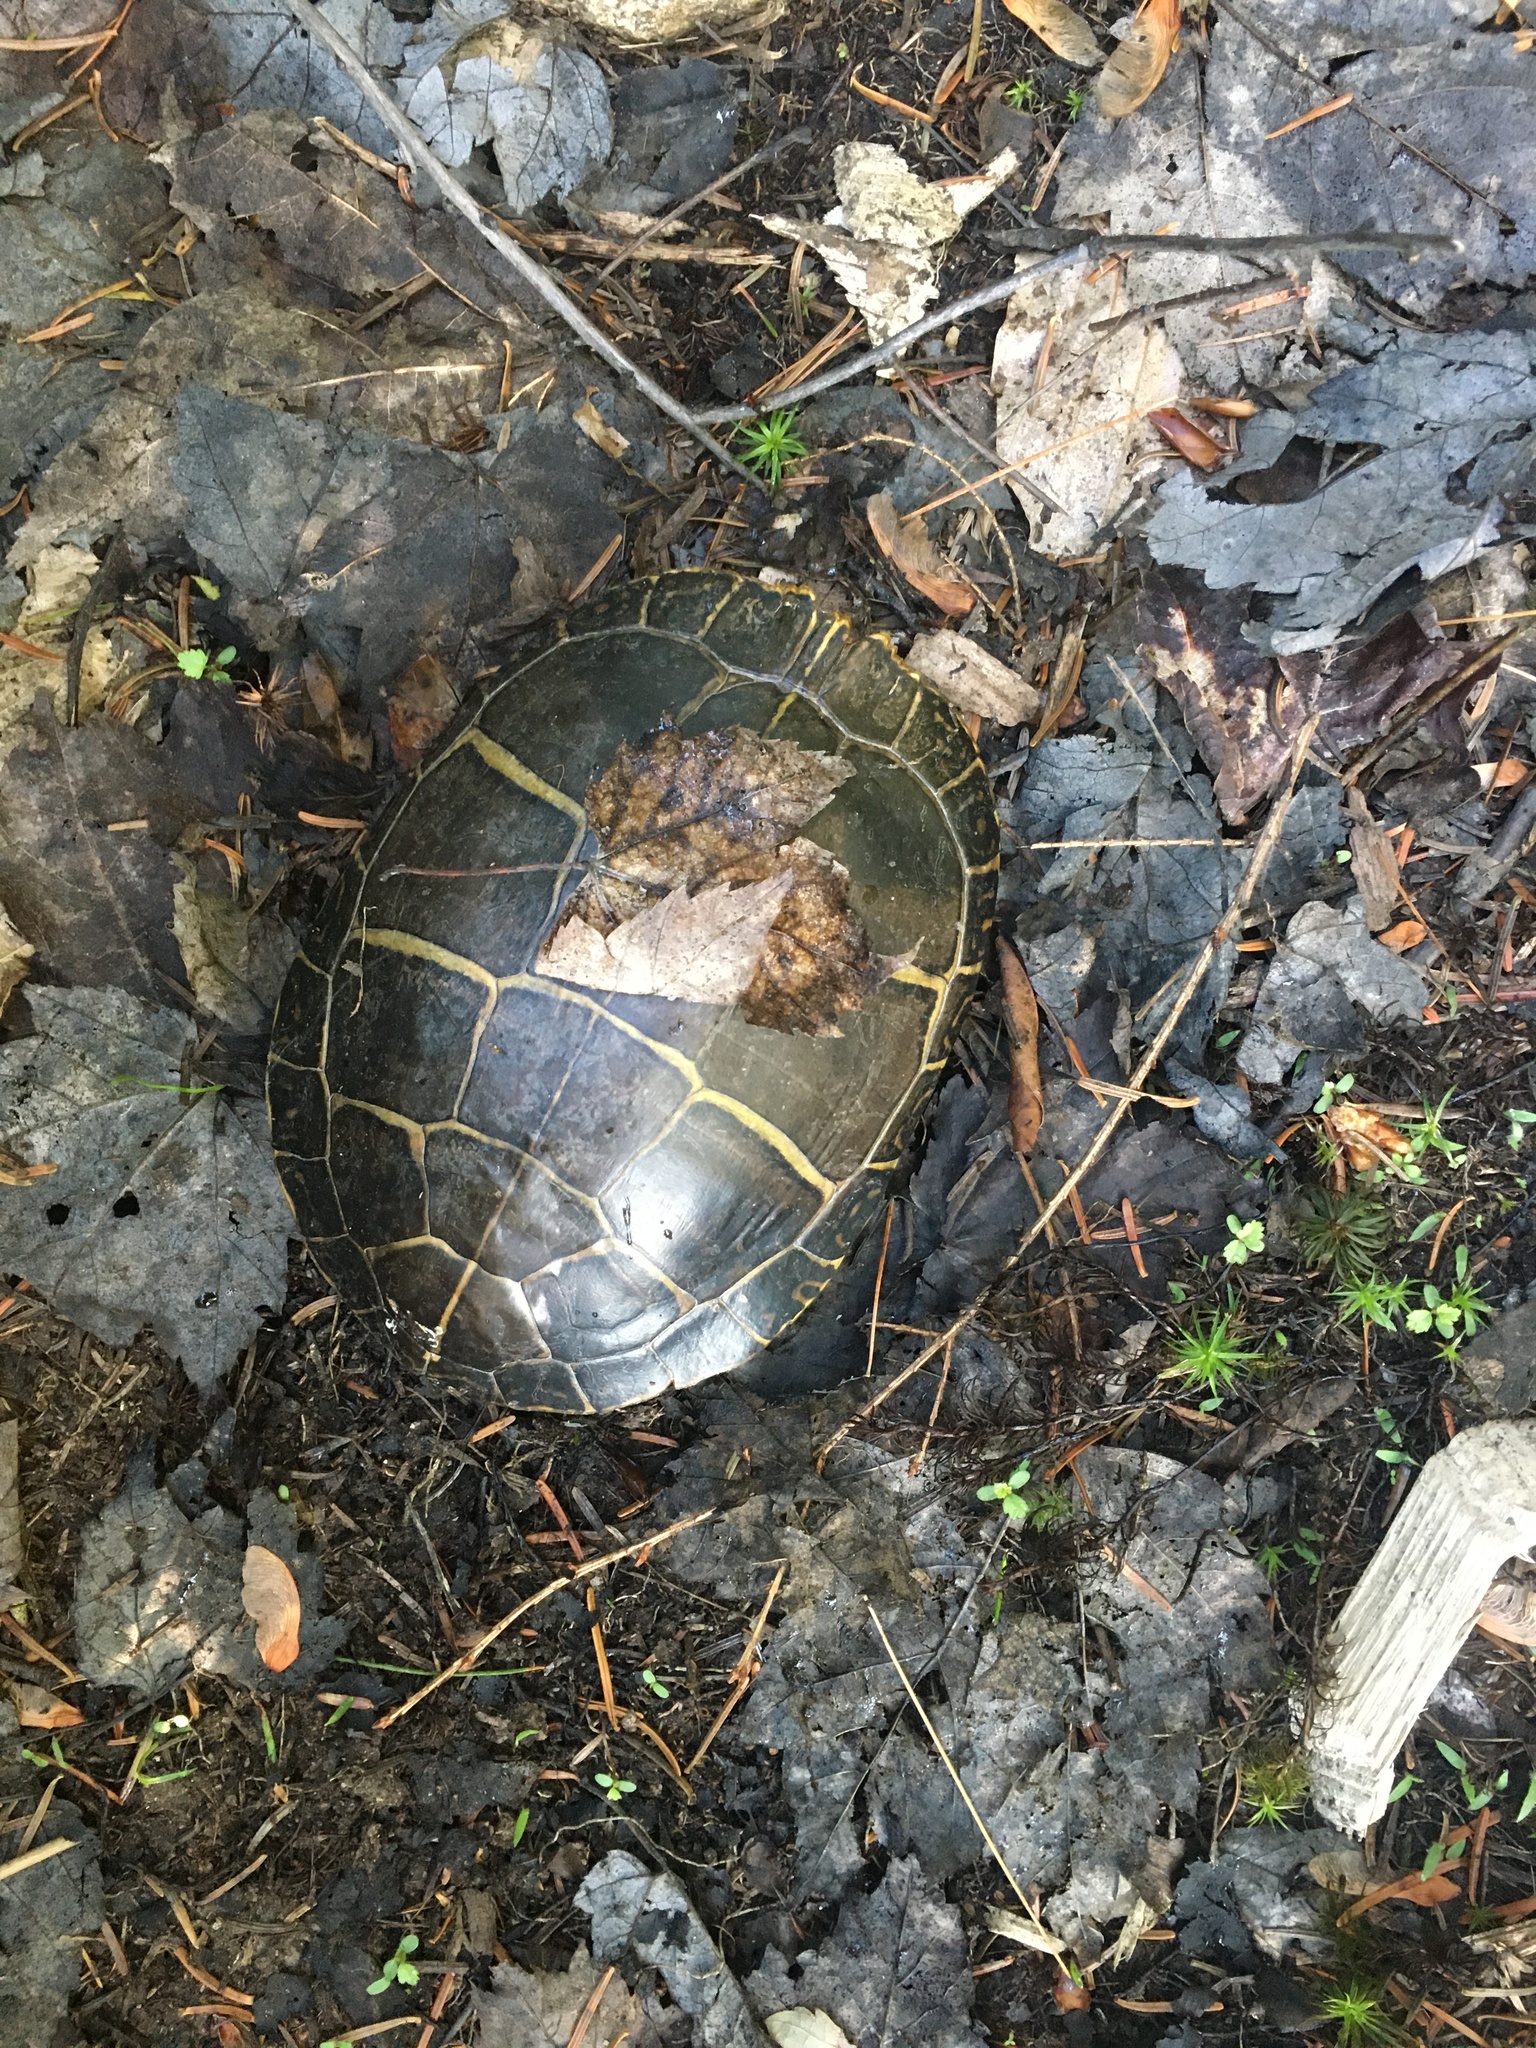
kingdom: Animalia
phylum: Chordata
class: Testudines
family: Emydidae
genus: Chrysemys
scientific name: Chrysemys picta
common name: Painted turtle
